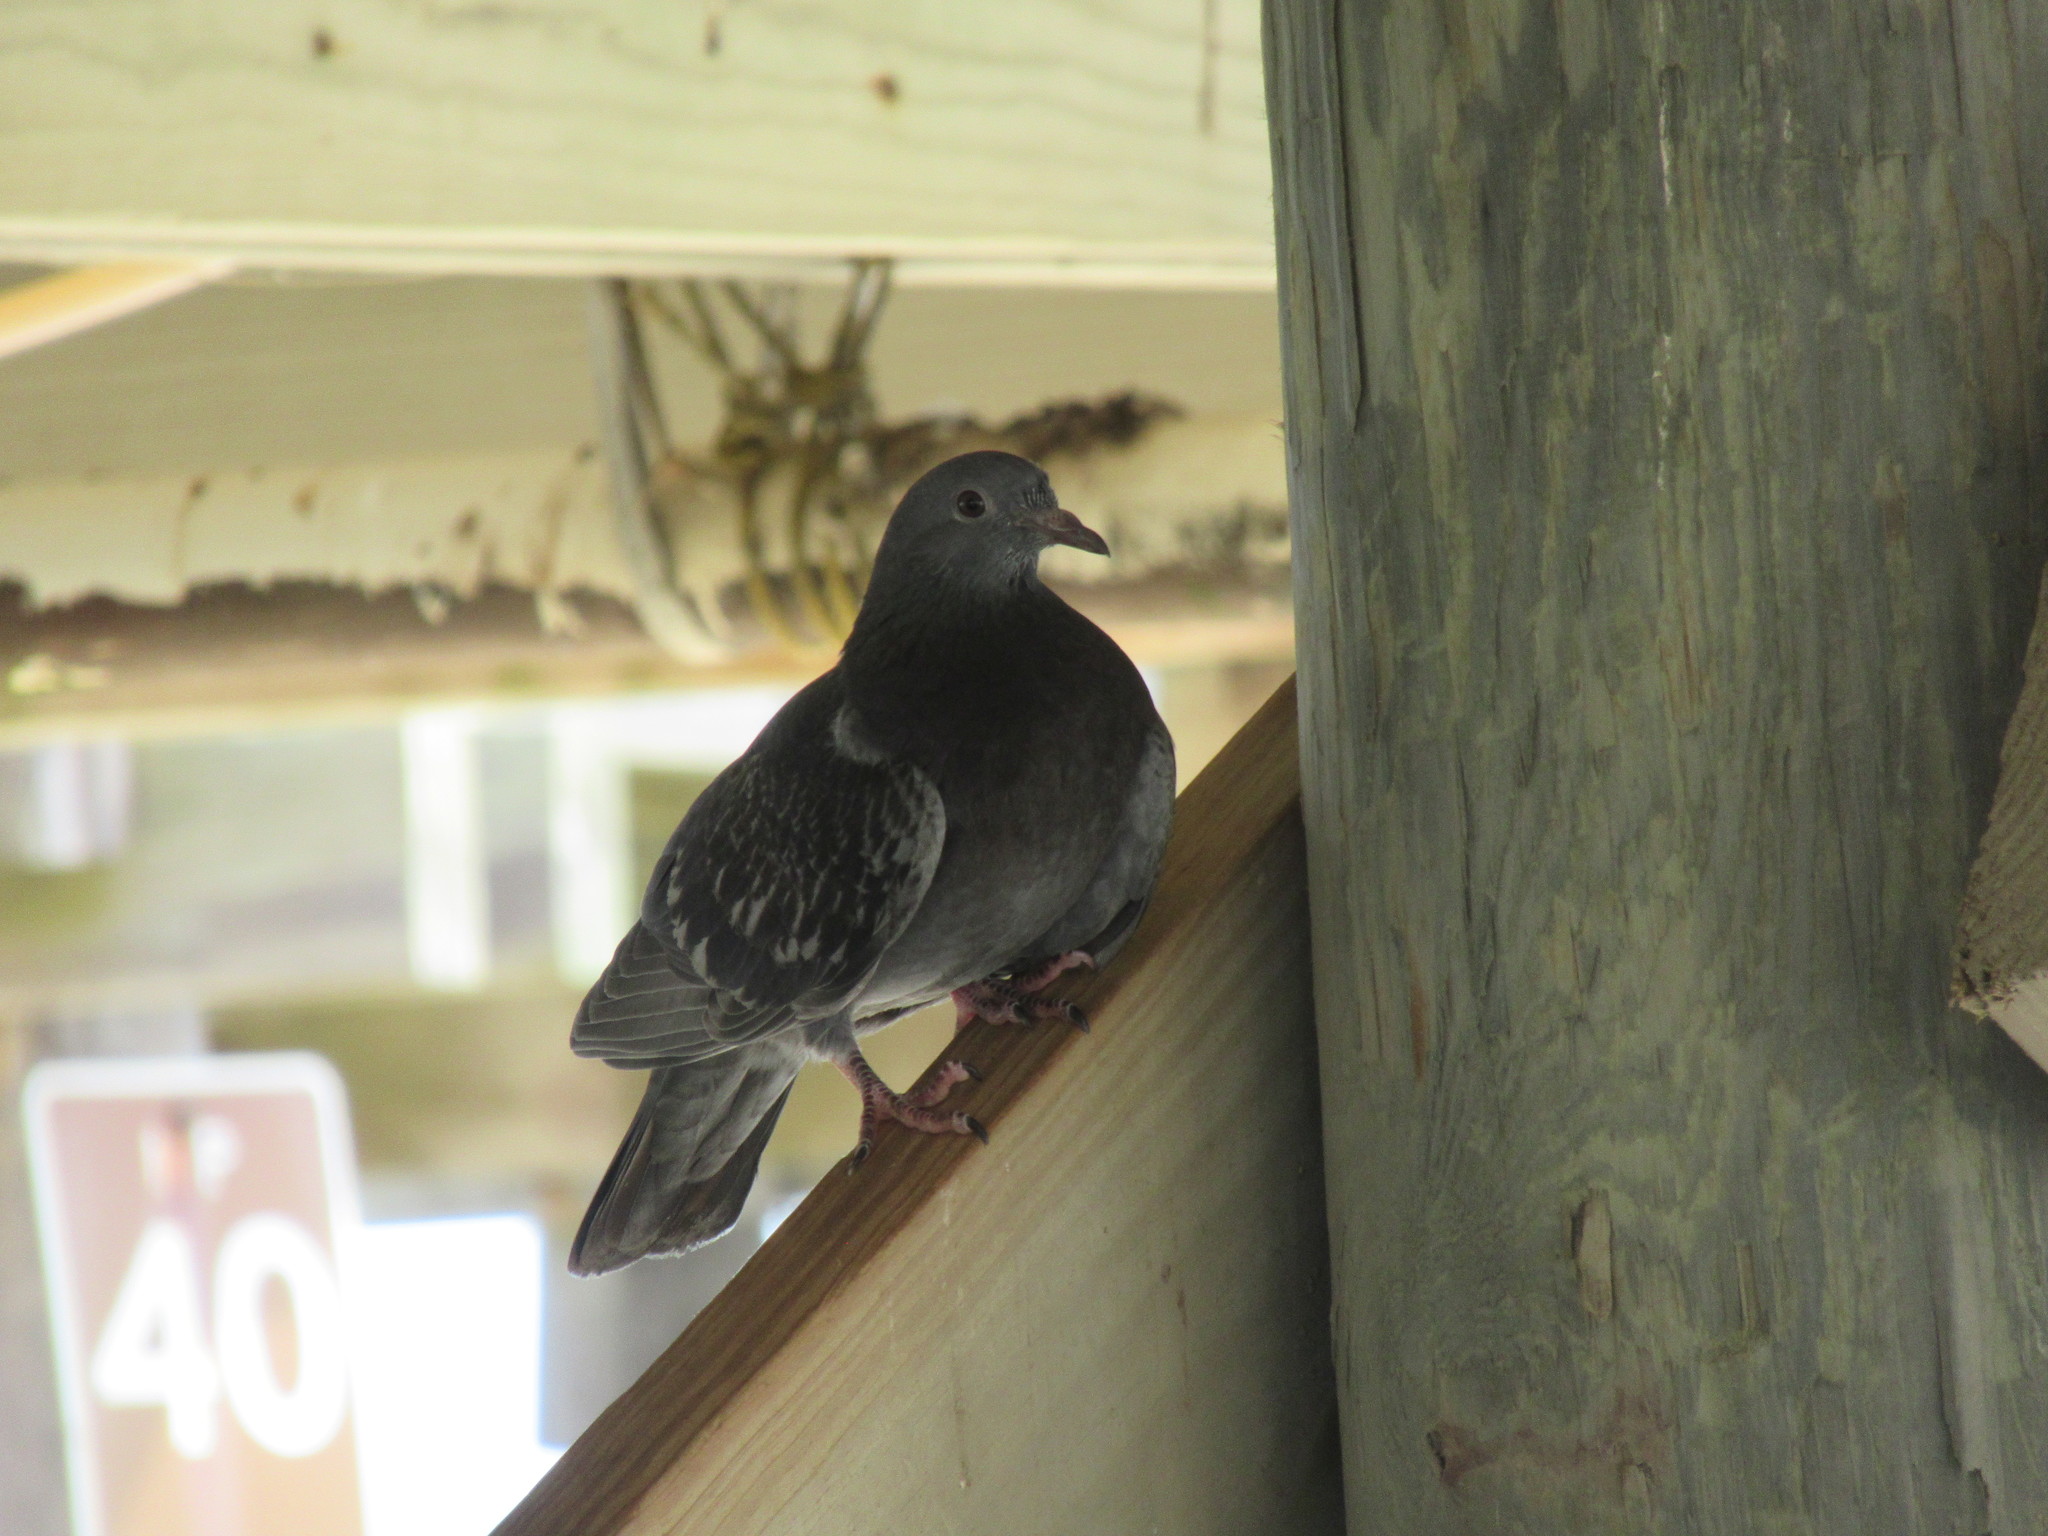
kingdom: Animalia
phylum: Chordata
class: Aves
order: Columbiformes
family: Columbidae
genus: Columba
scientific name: Columba livia
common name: Rock pigeon
